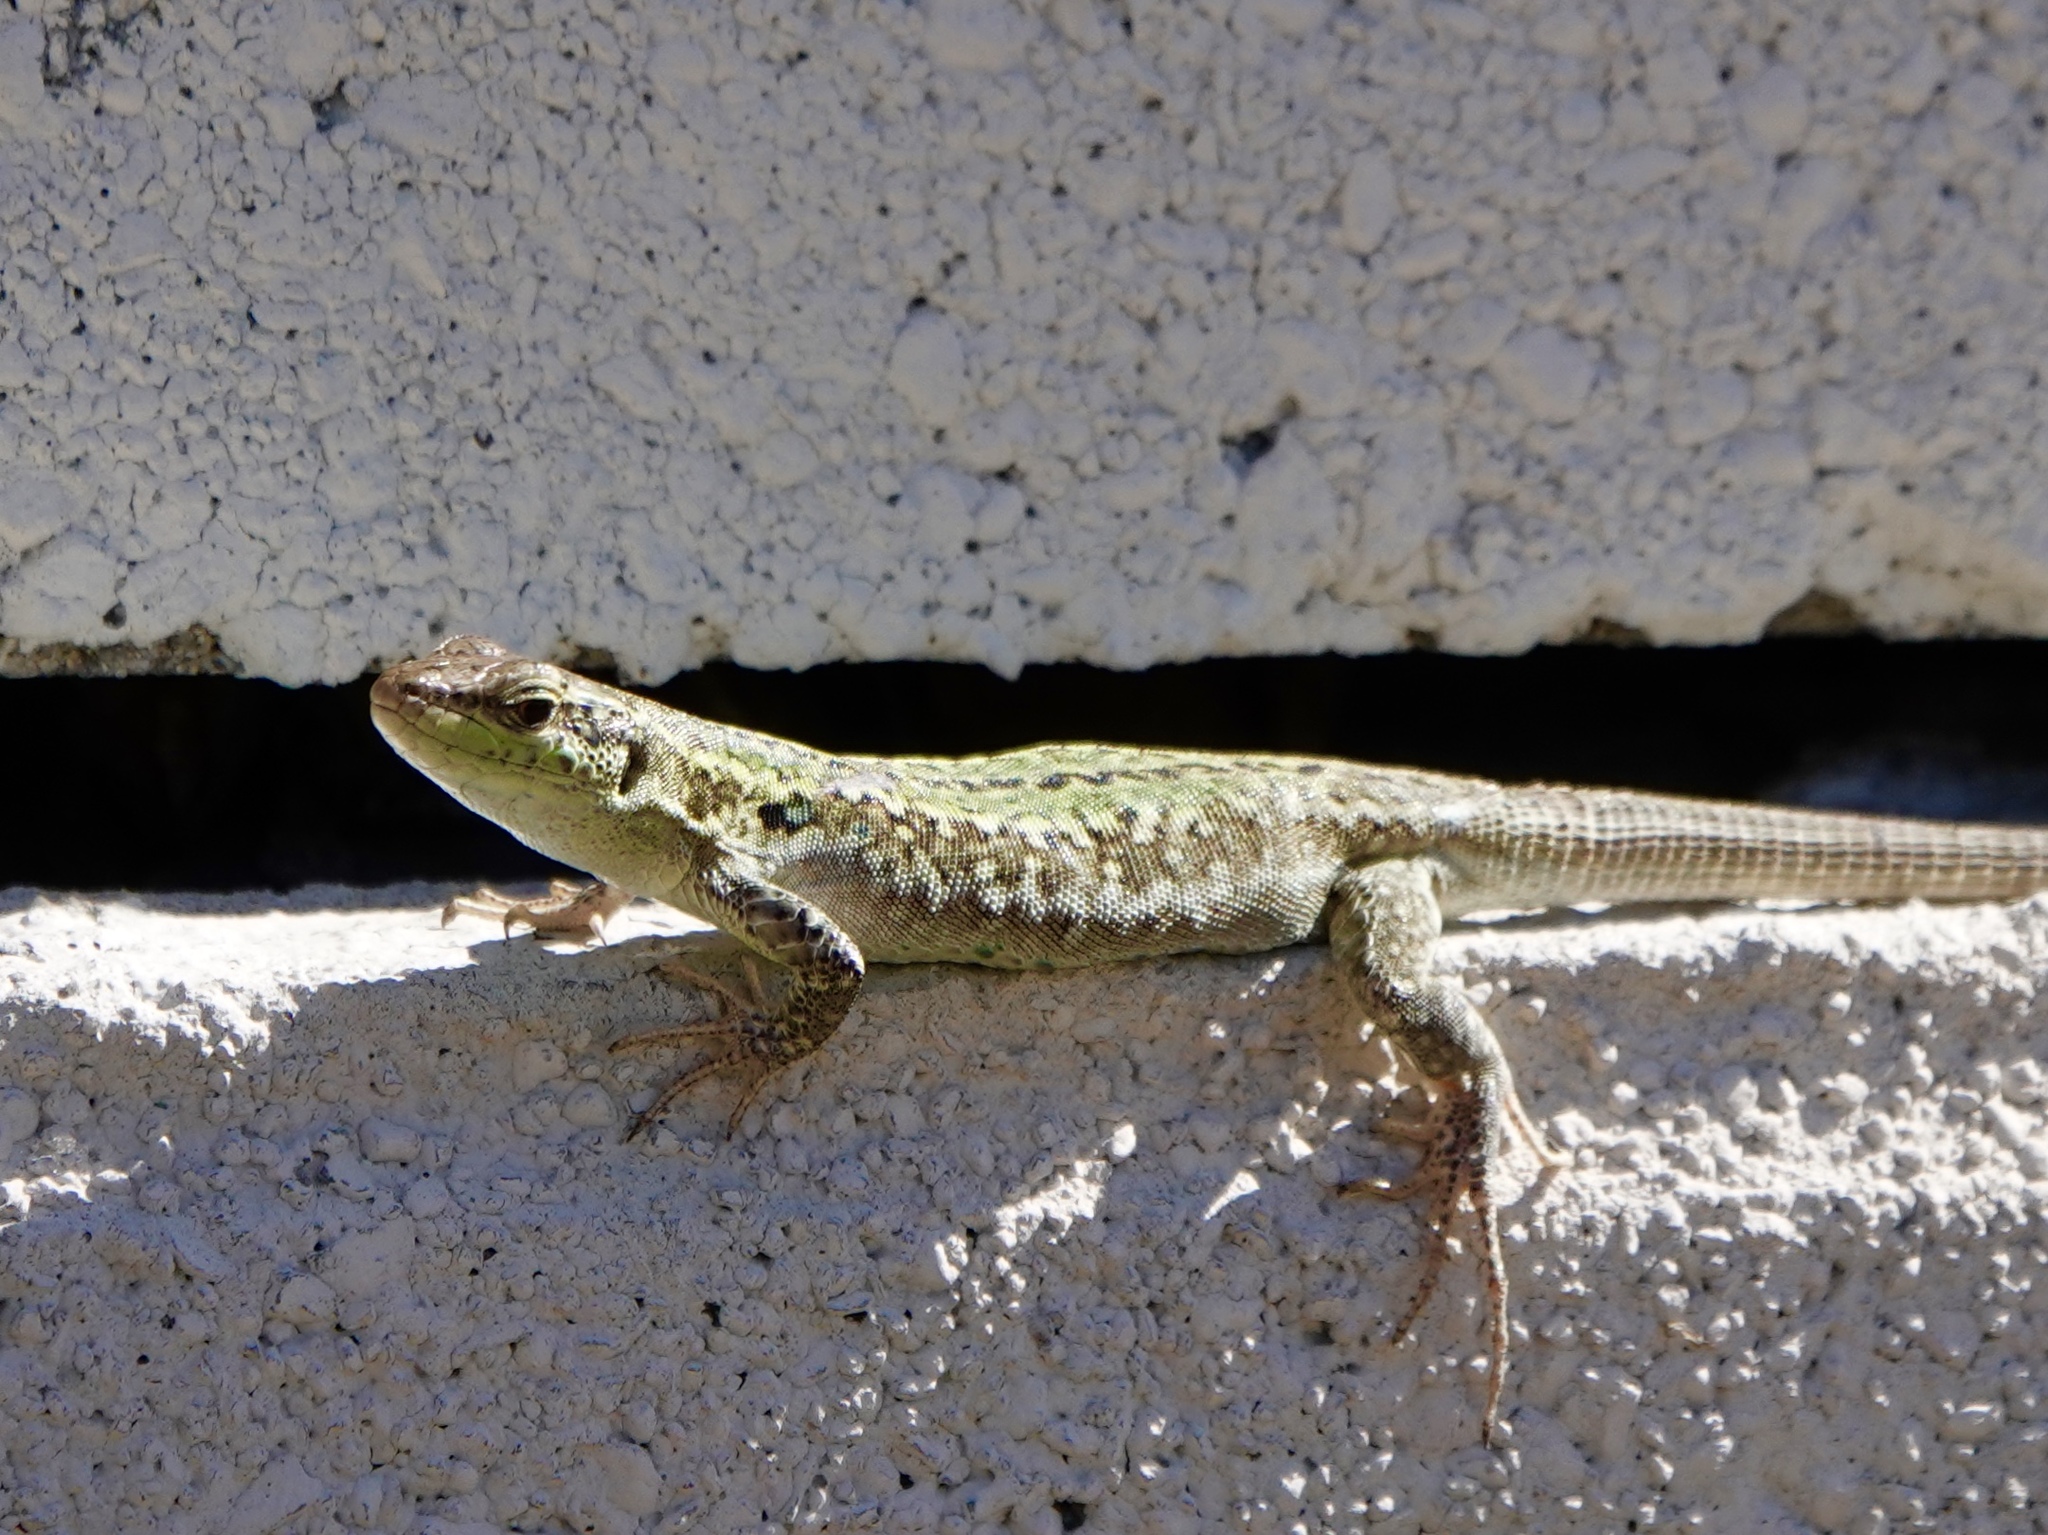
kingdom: Animalia
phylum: Chordata
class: Squamata
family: Lacertidae
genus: Podarcis
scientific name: Podarcis siculus
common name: Italian wall lizard
